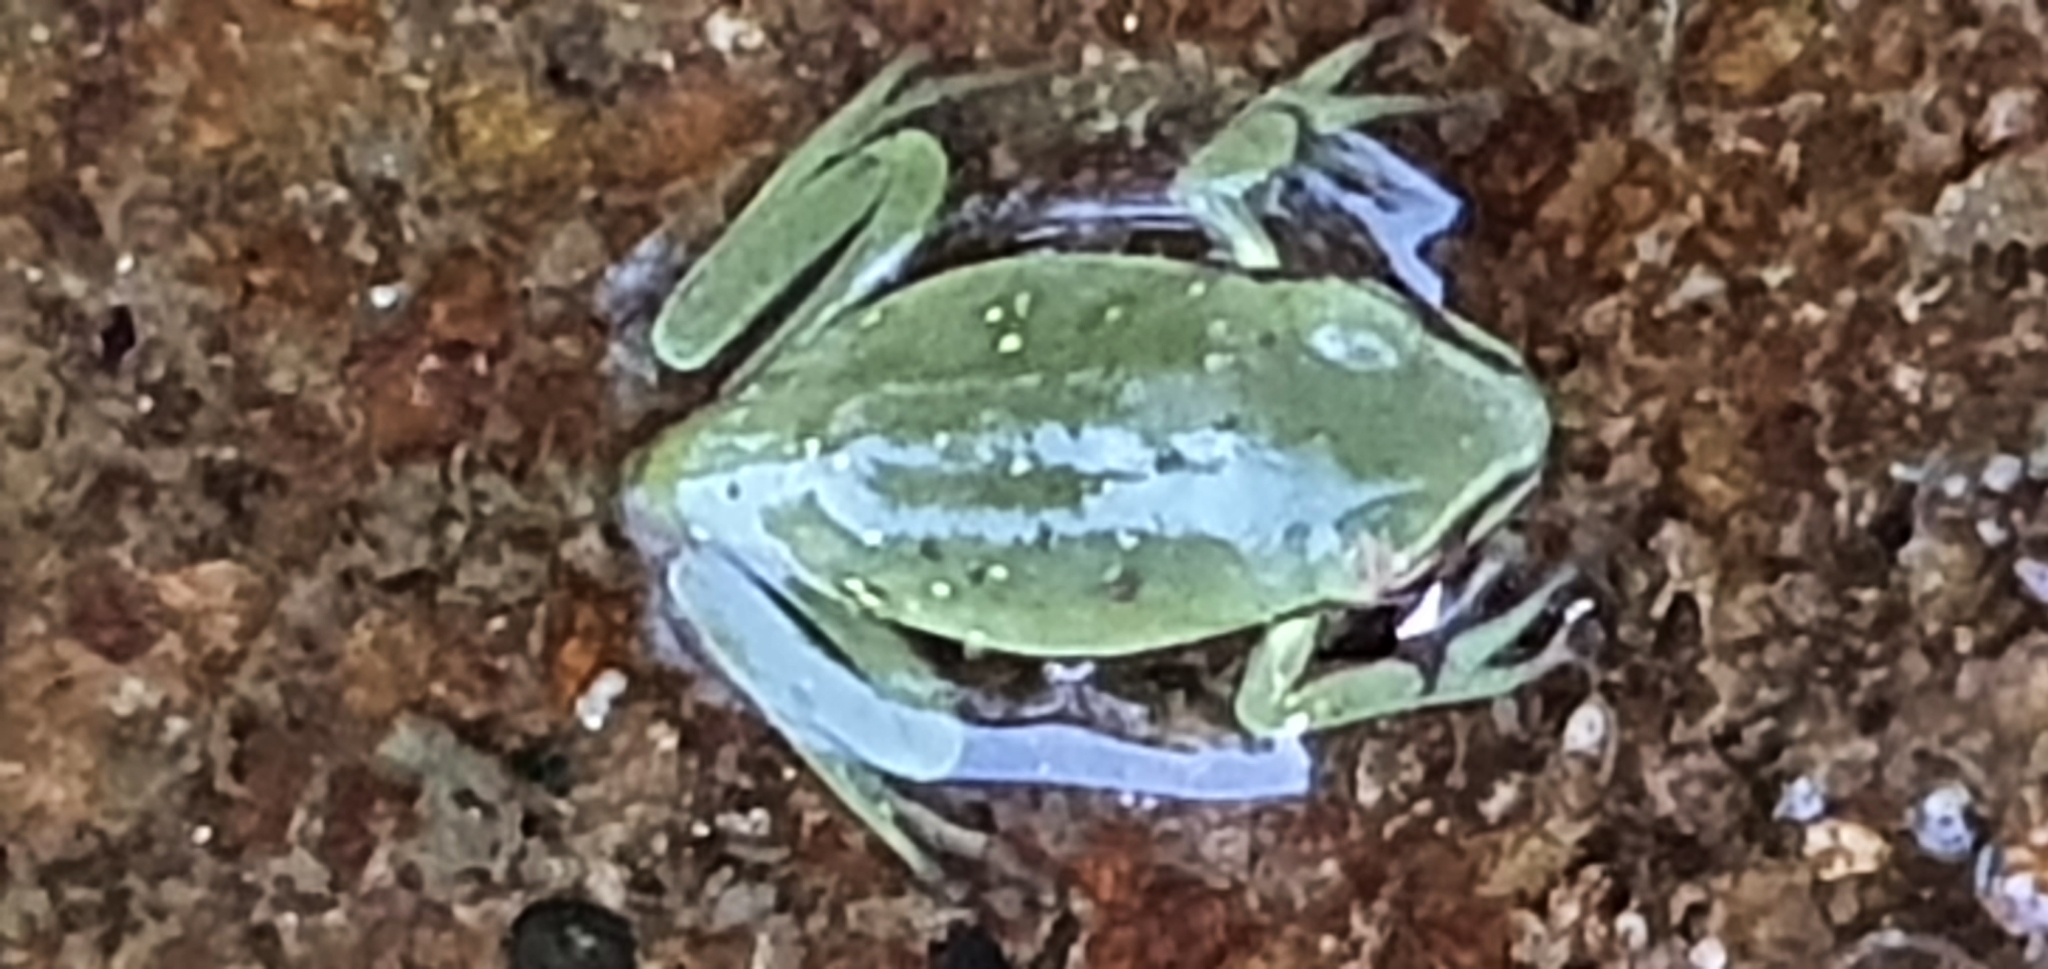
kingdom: Animalia
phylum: Chordata
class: Amphibia
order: Anura
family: Pelodryadidae
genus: Ranoidea
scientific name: Ranoidea caerulea
